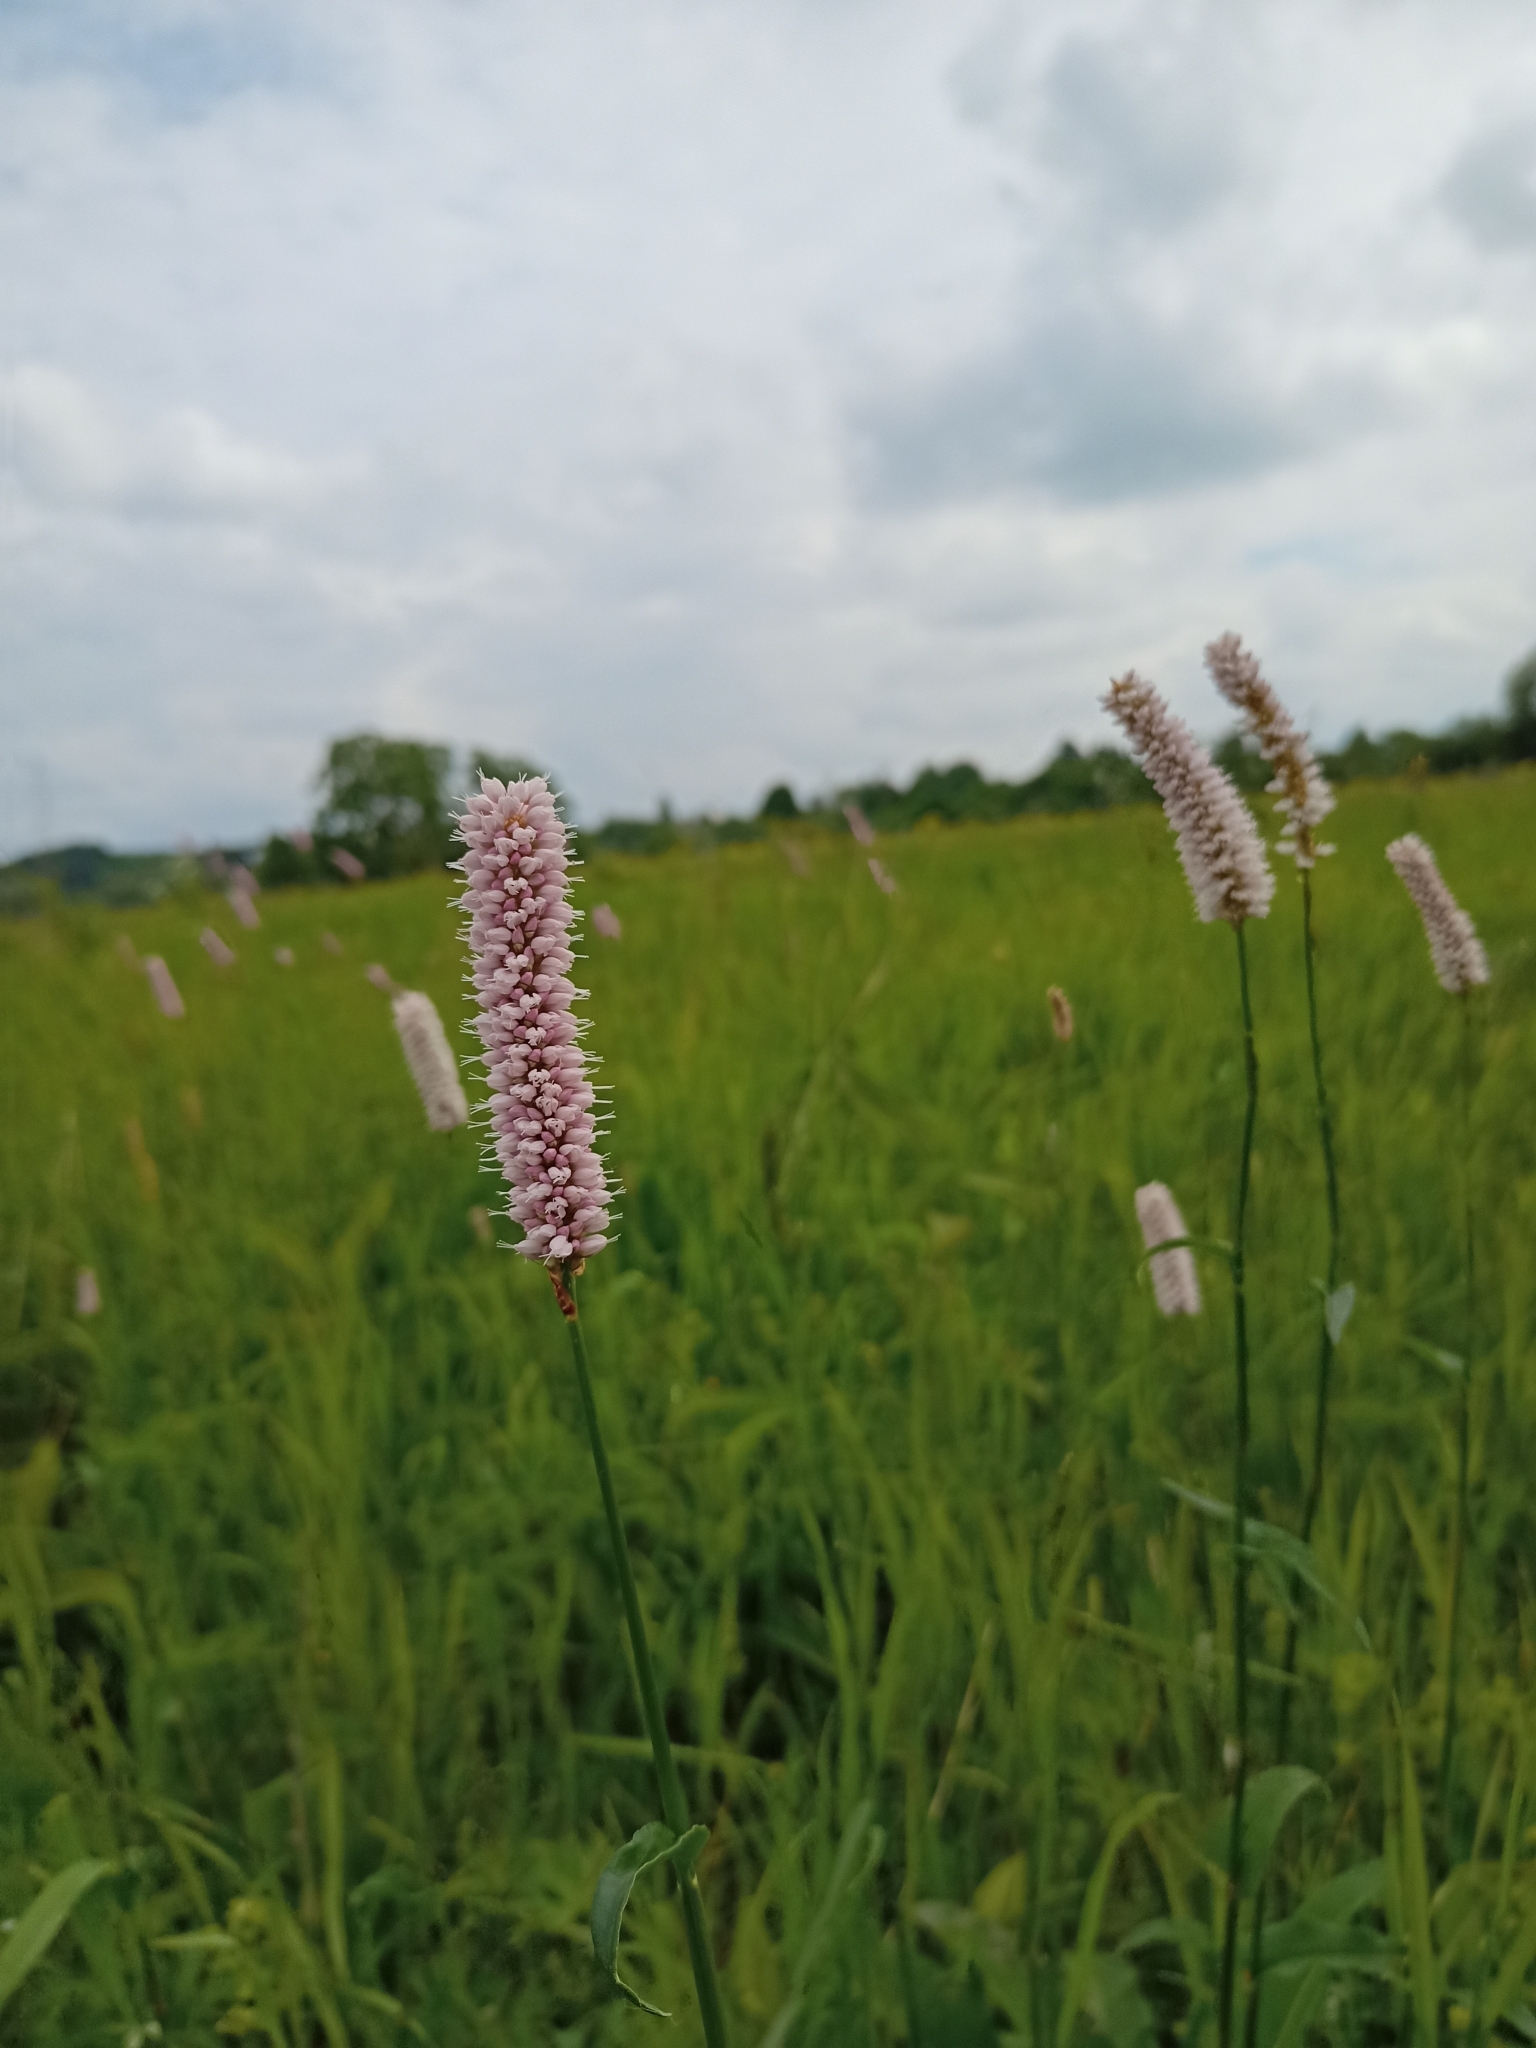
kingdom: Plantae
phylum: Tracheophyta
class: Magnoliopsida
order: Caryophyllales
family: Polygonaceae
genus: Bistorta
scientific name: Bistorta officinalis
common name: Common bistort
